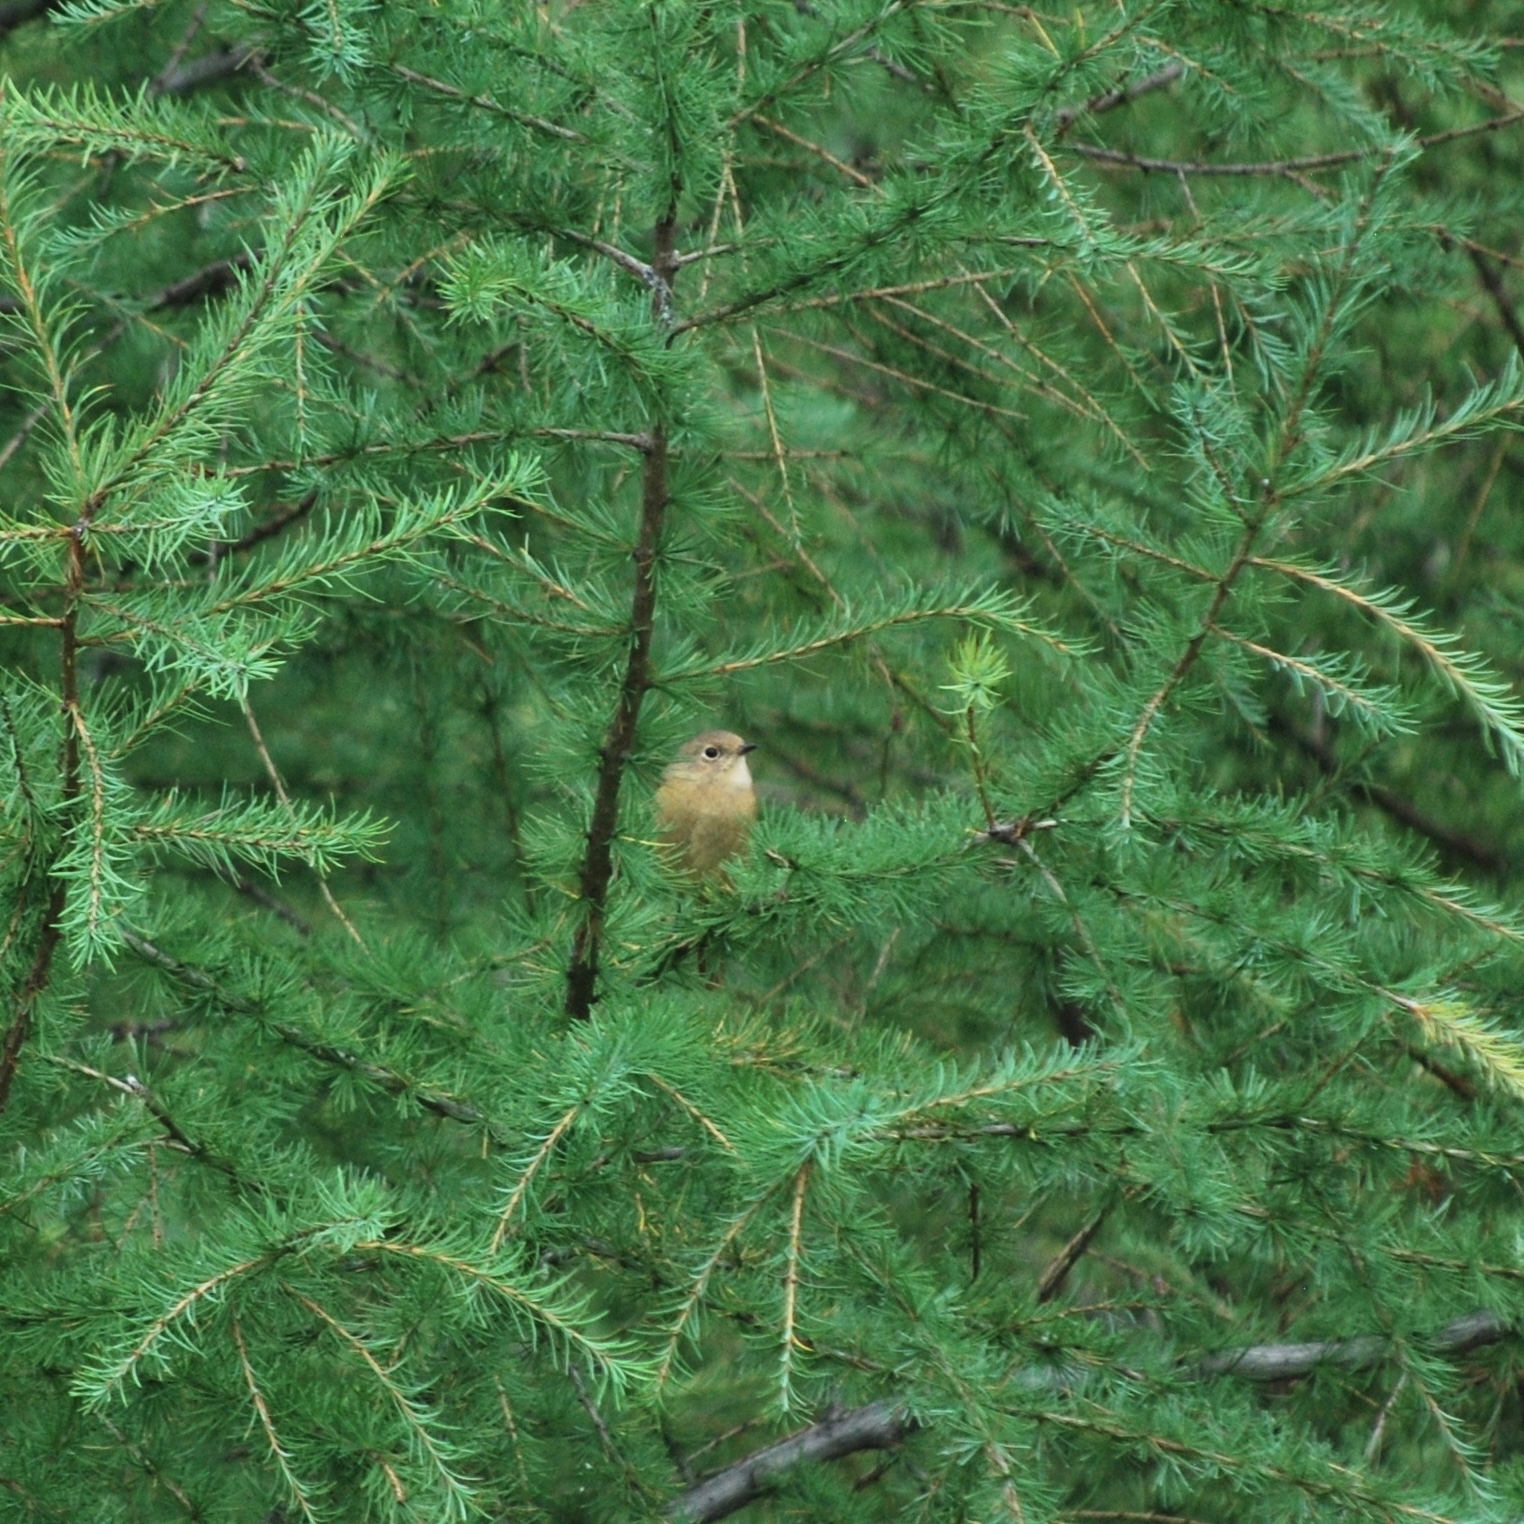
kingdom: Animalia
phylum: Chordata
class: Aves
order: Passeriformes
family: Muscicapidae
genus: Phoenicurus
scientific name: Phoenicurus auroreus
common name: Daurian redstart
